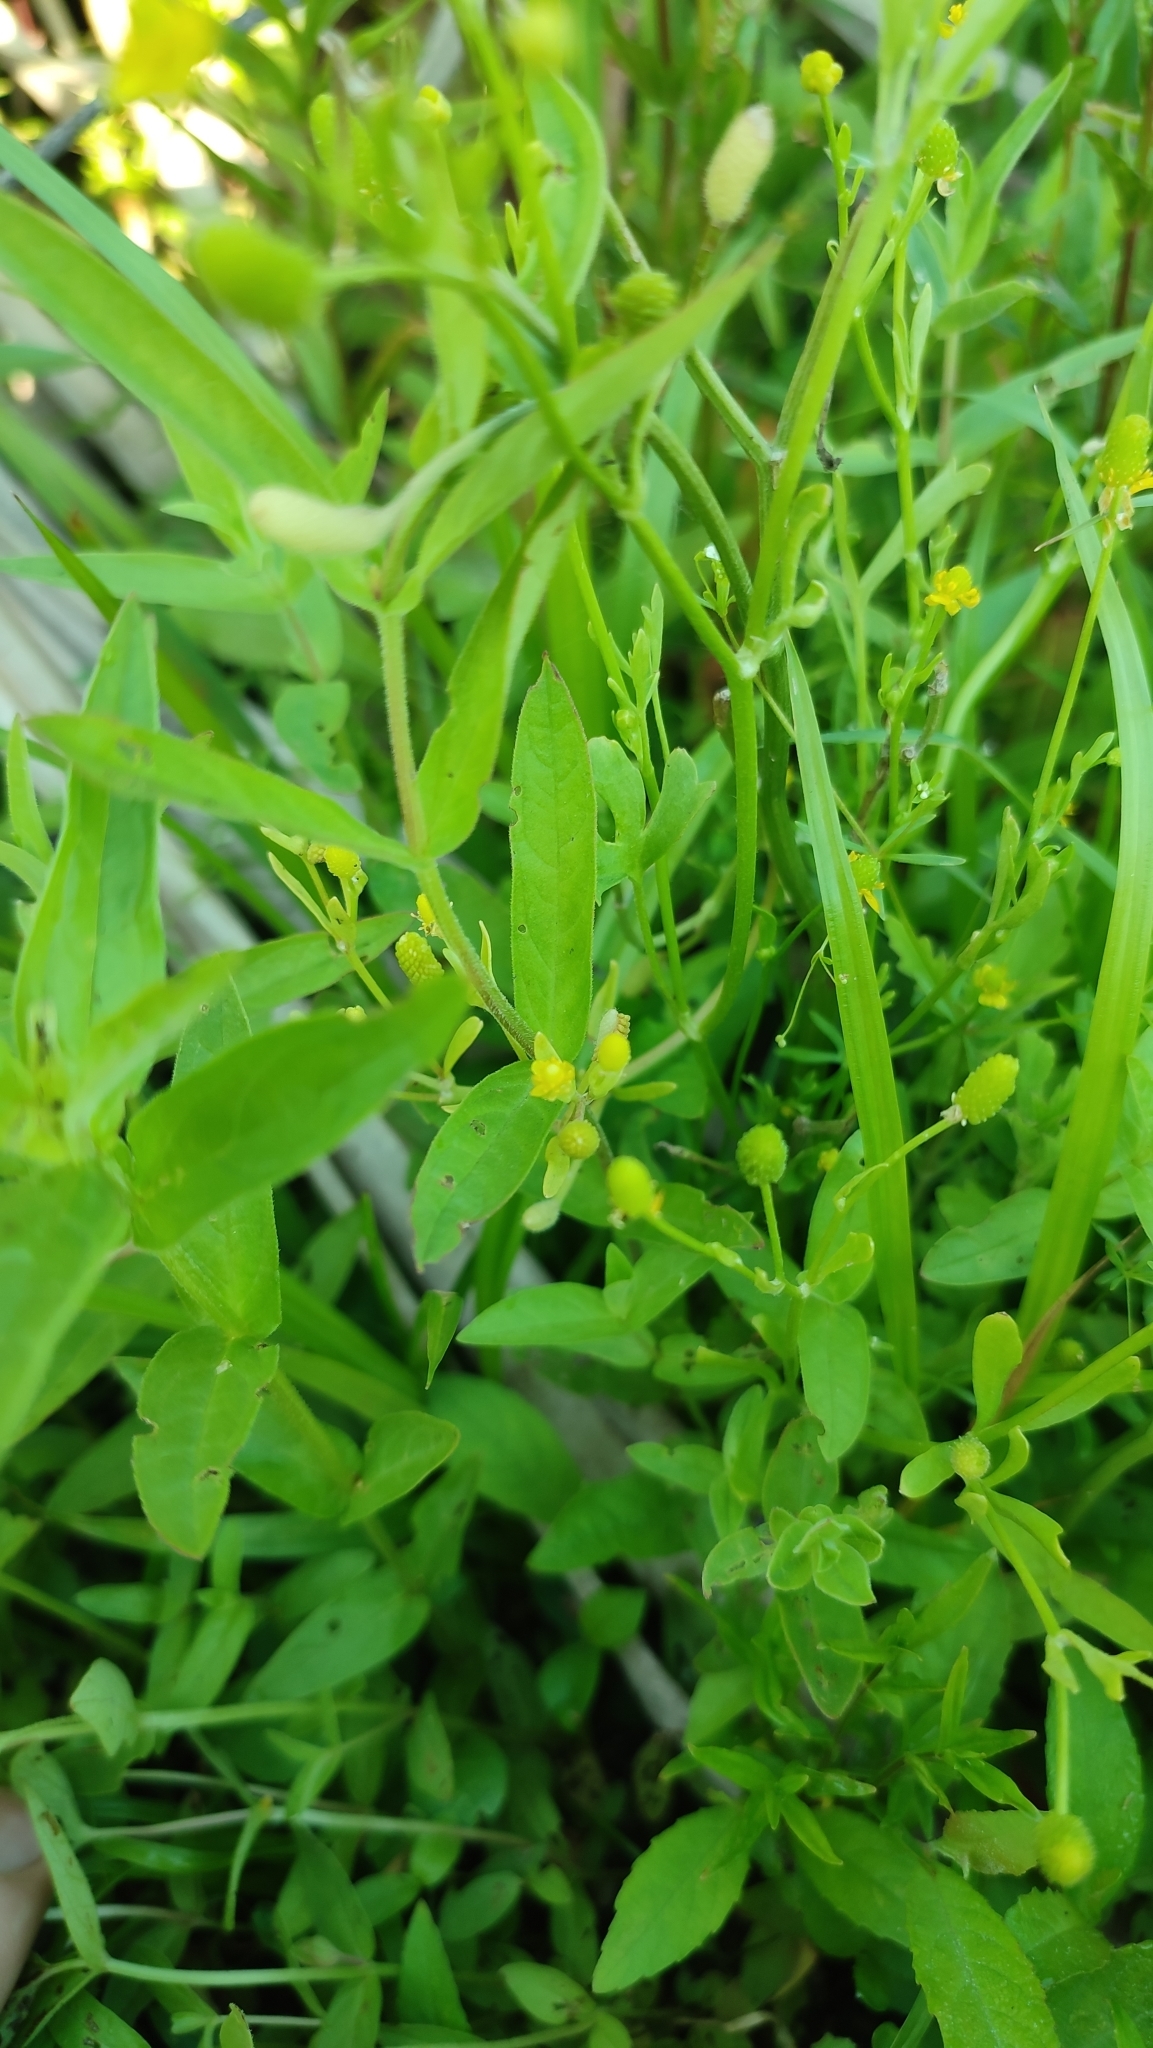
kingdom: Plantae
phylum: Tracheophyta
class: Magnoliopsida
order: Ranunculales
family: Ranunculaceae
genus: Ranunculus
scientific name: Ranunculus sceleratus
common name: Celery-leaved buttercup
